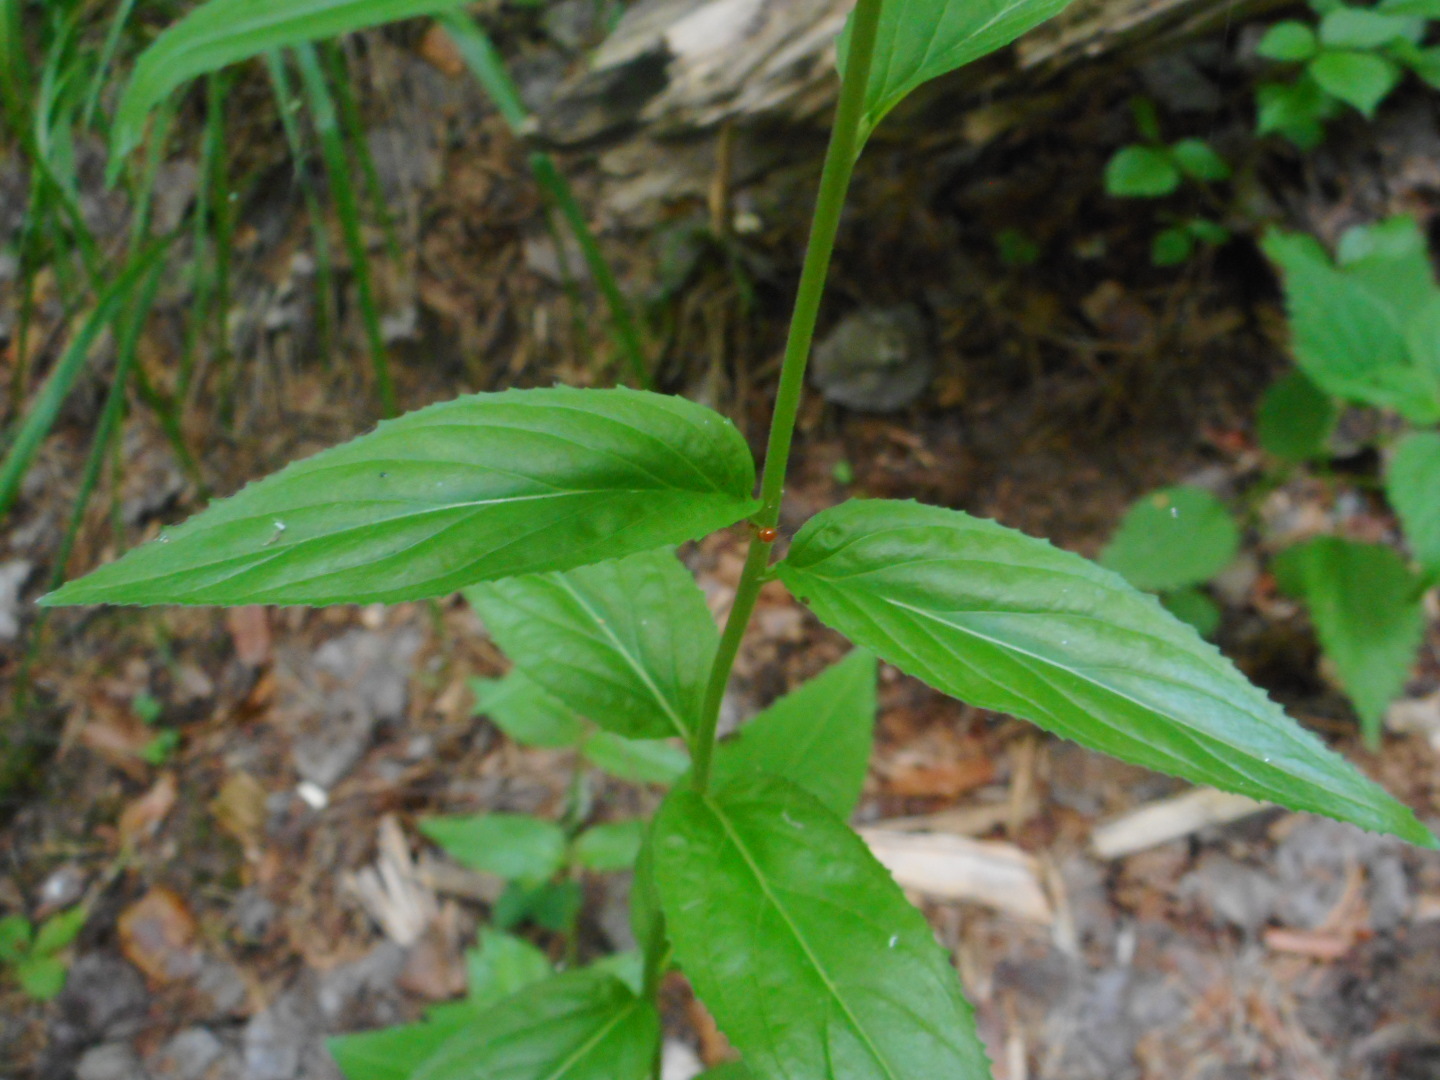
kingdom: Plantae
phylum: Tracheophyta
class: Magnoliopsida
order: Myrtales
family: Onagraceae
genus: Epilobium
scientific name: Epilobium montanum
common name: Broad-leaved willowherb
